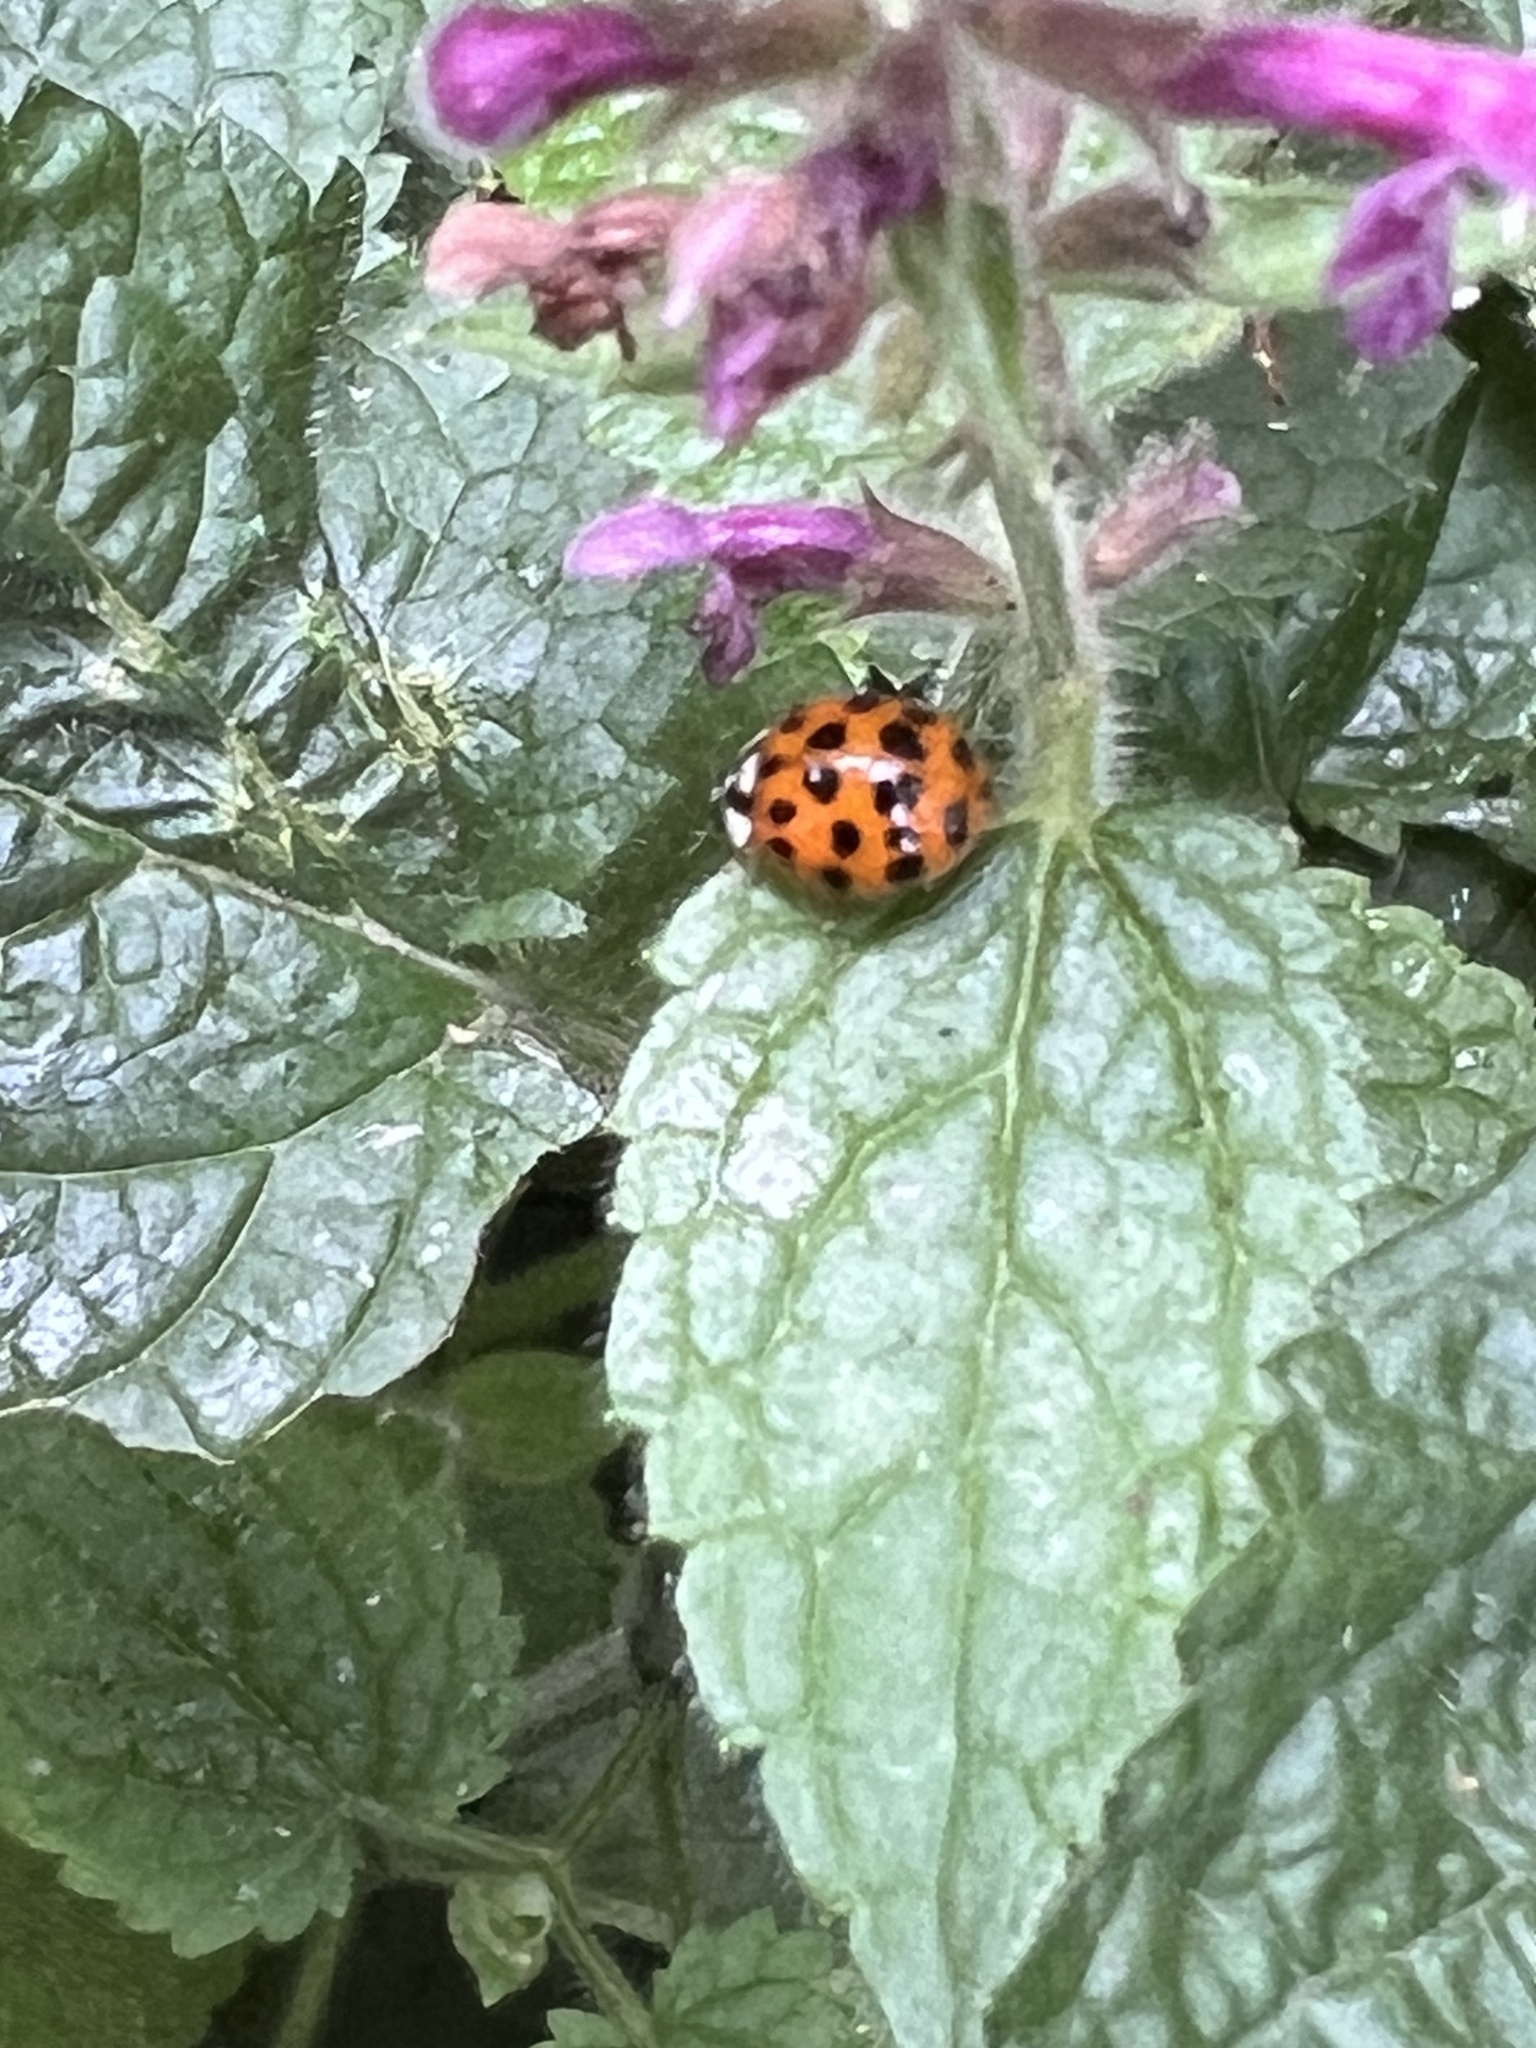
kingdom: Animalia
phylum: Arthropoda
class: Insecta
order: Coleoptera
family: Coccinellidae
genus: Harmonia
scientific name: Harmonia axyridis
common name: Harlequin ladybird
